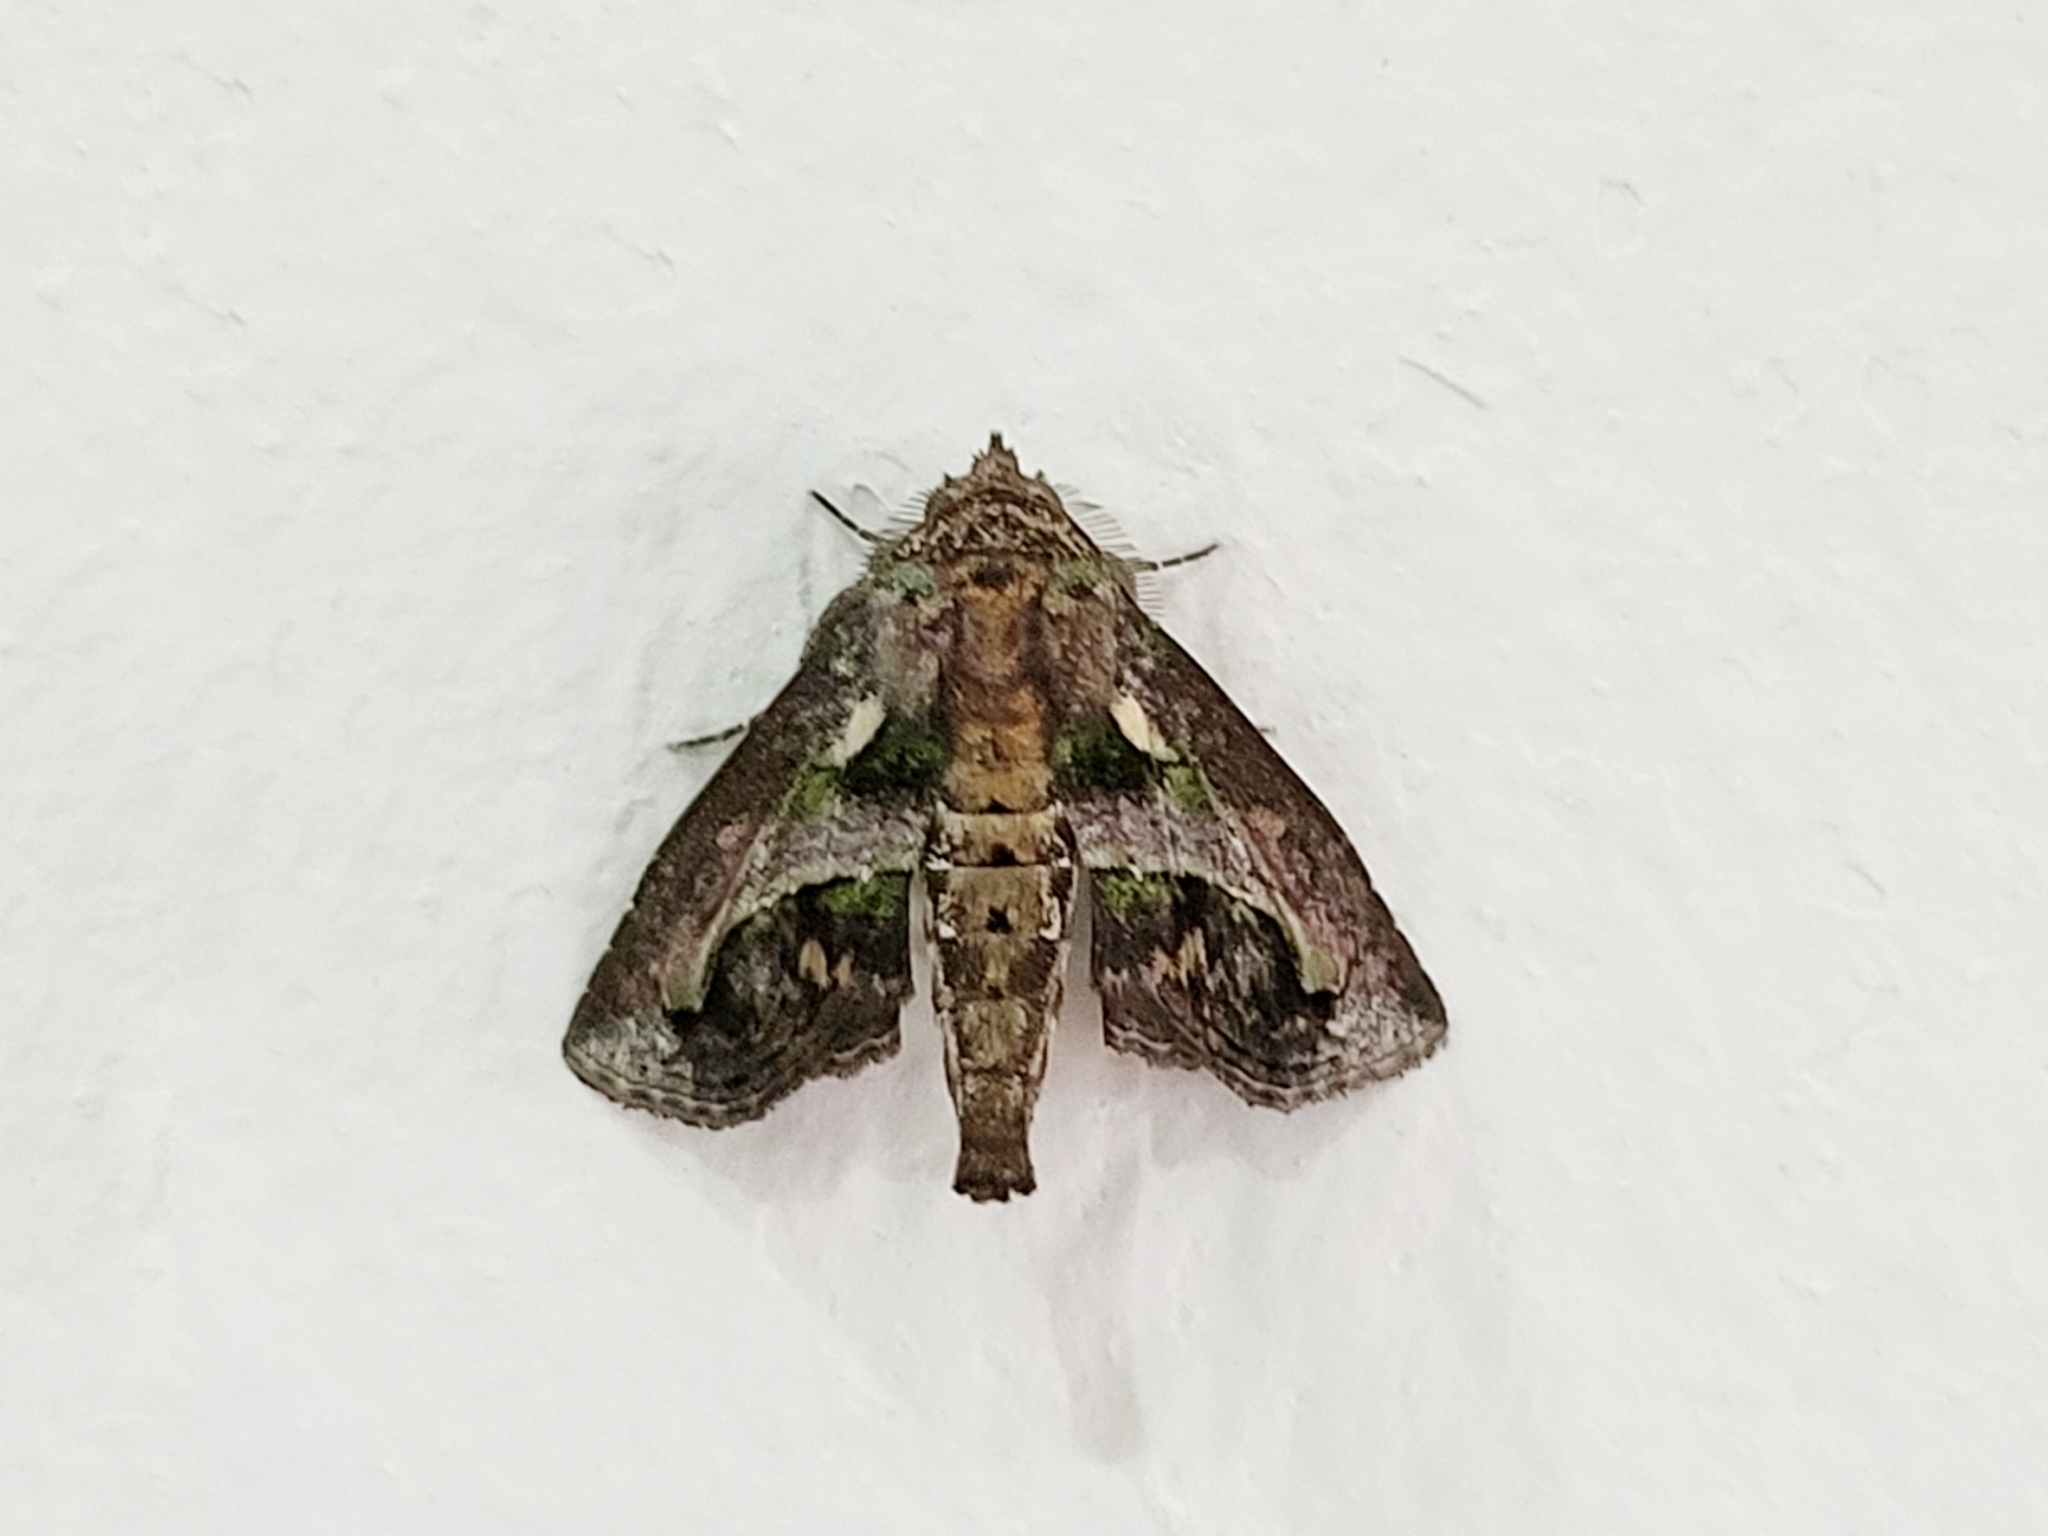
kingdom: Animalia
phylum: Arthropoda
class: Insecta
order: Lepidoptera
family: Euteliidae
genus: Paectes
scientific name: Paectes psaliphora
